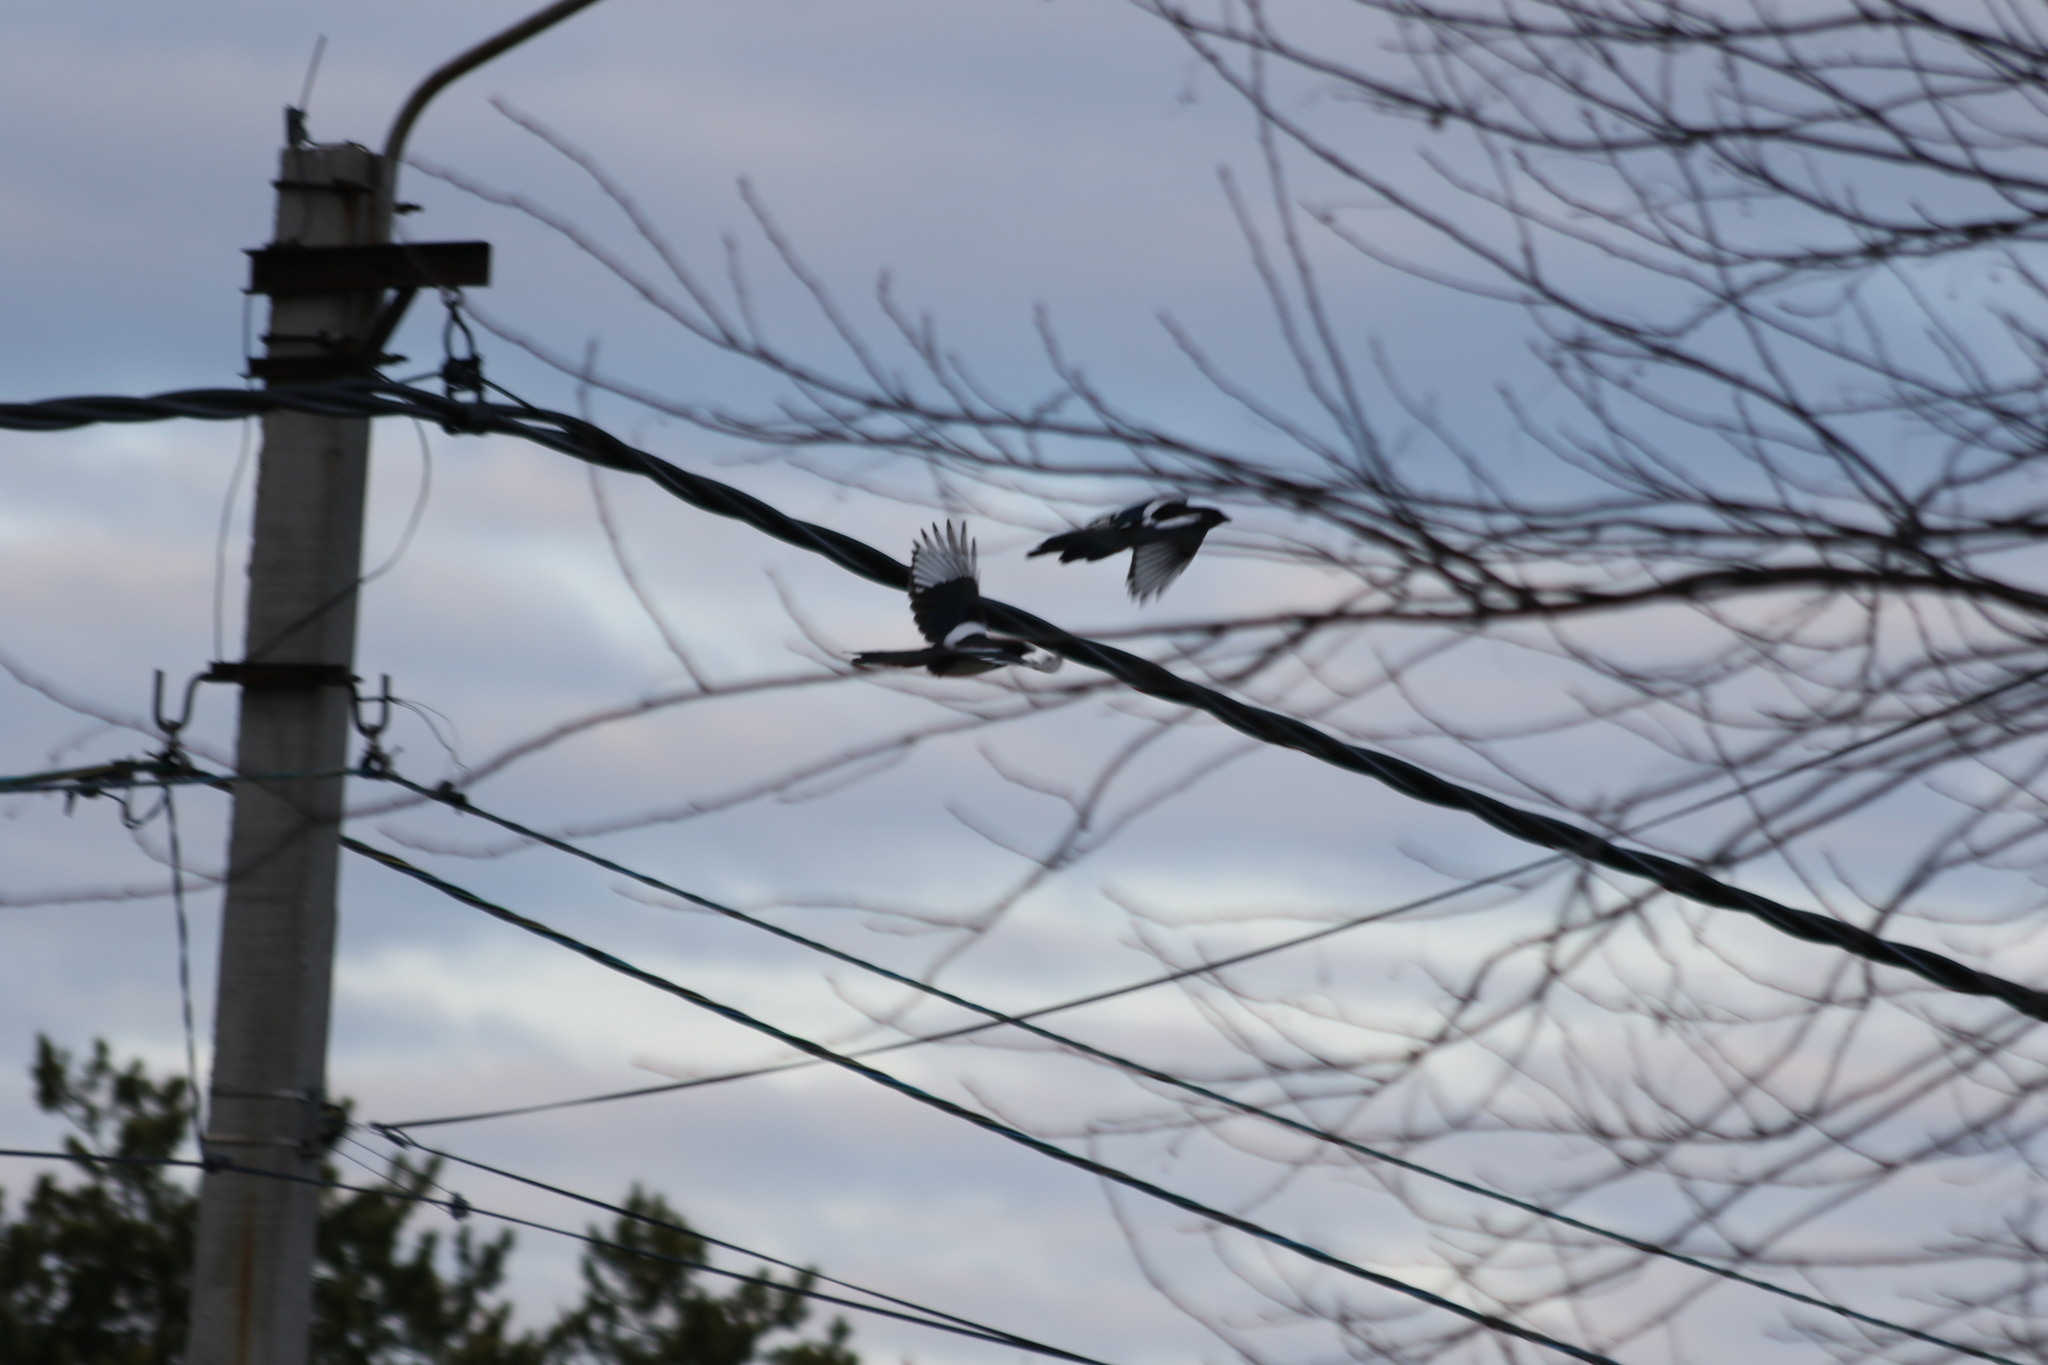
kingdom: Animalia
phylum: Chordata
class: Aves
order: Passeriformes
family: Corvidae
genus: Pica
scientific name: Pica pica
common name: Eurasian magpie
